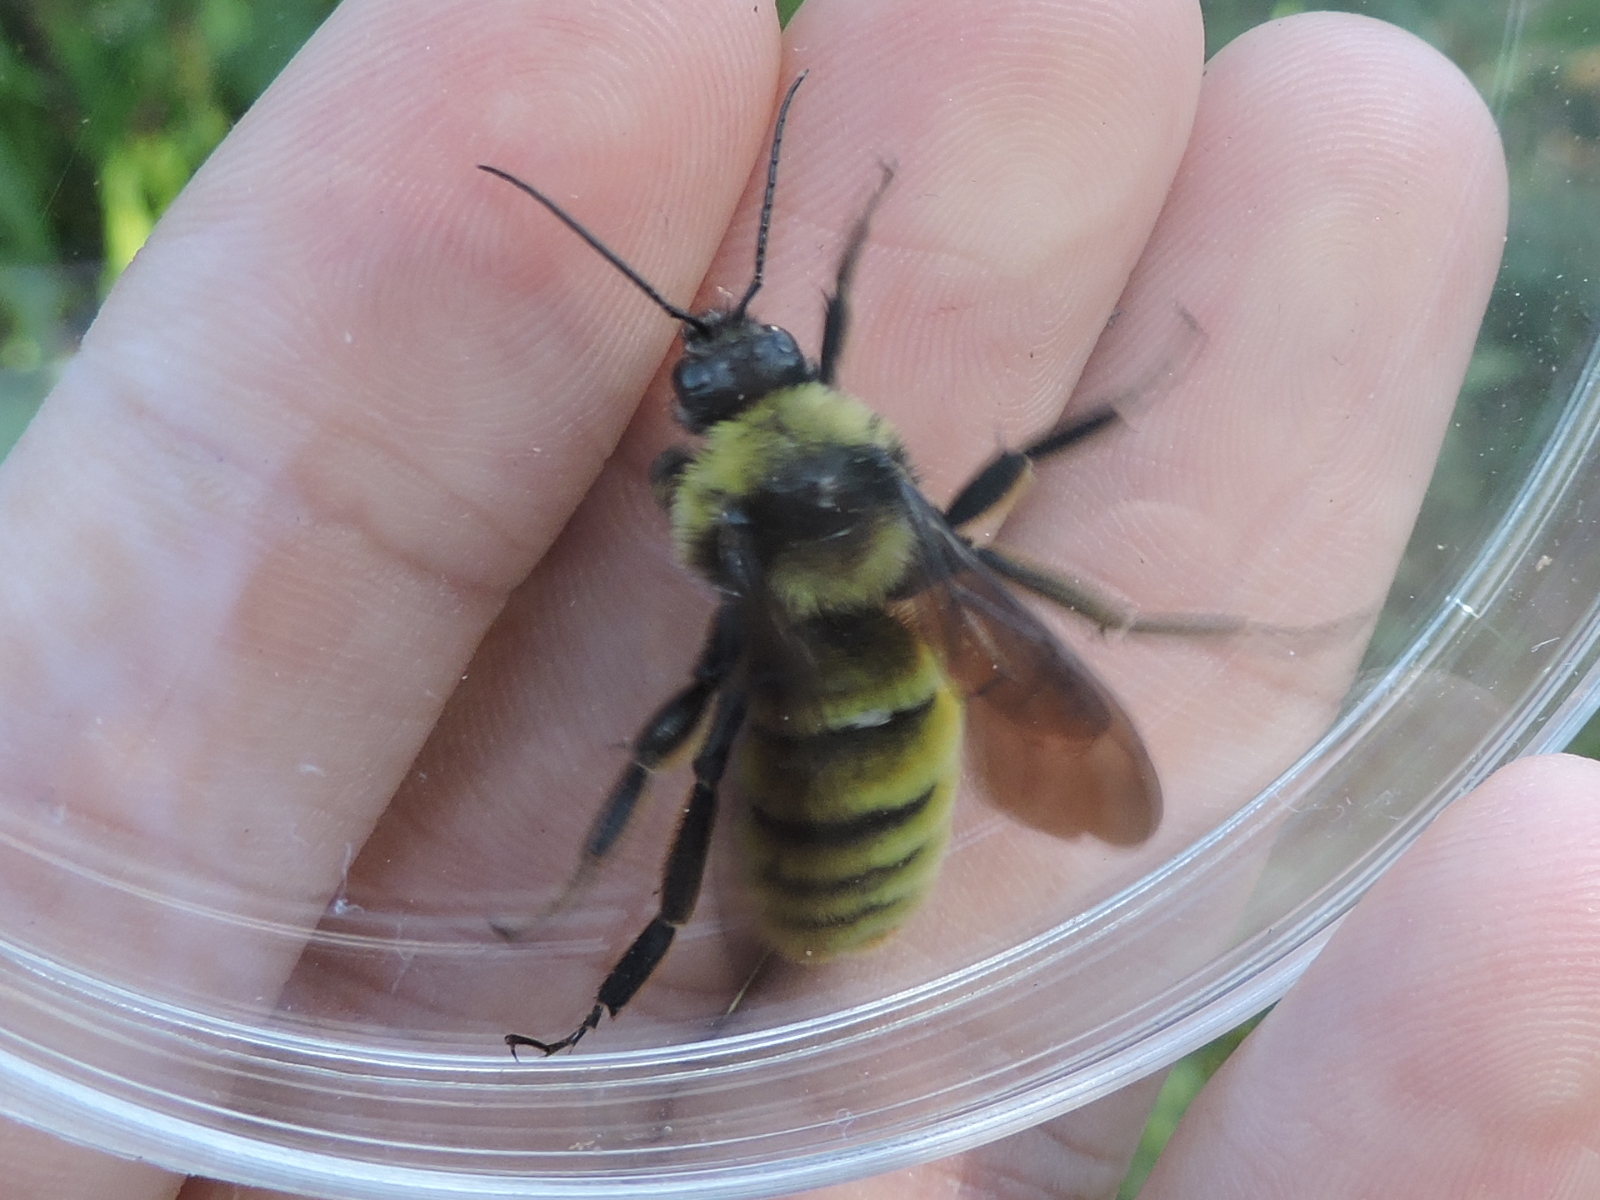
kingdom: Animalia
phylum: Arthropoda
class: Insecta
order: Hymenoptera
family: Apidae
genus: Bombus
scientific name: Bombus pensylvanicus
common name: Bumble bee
